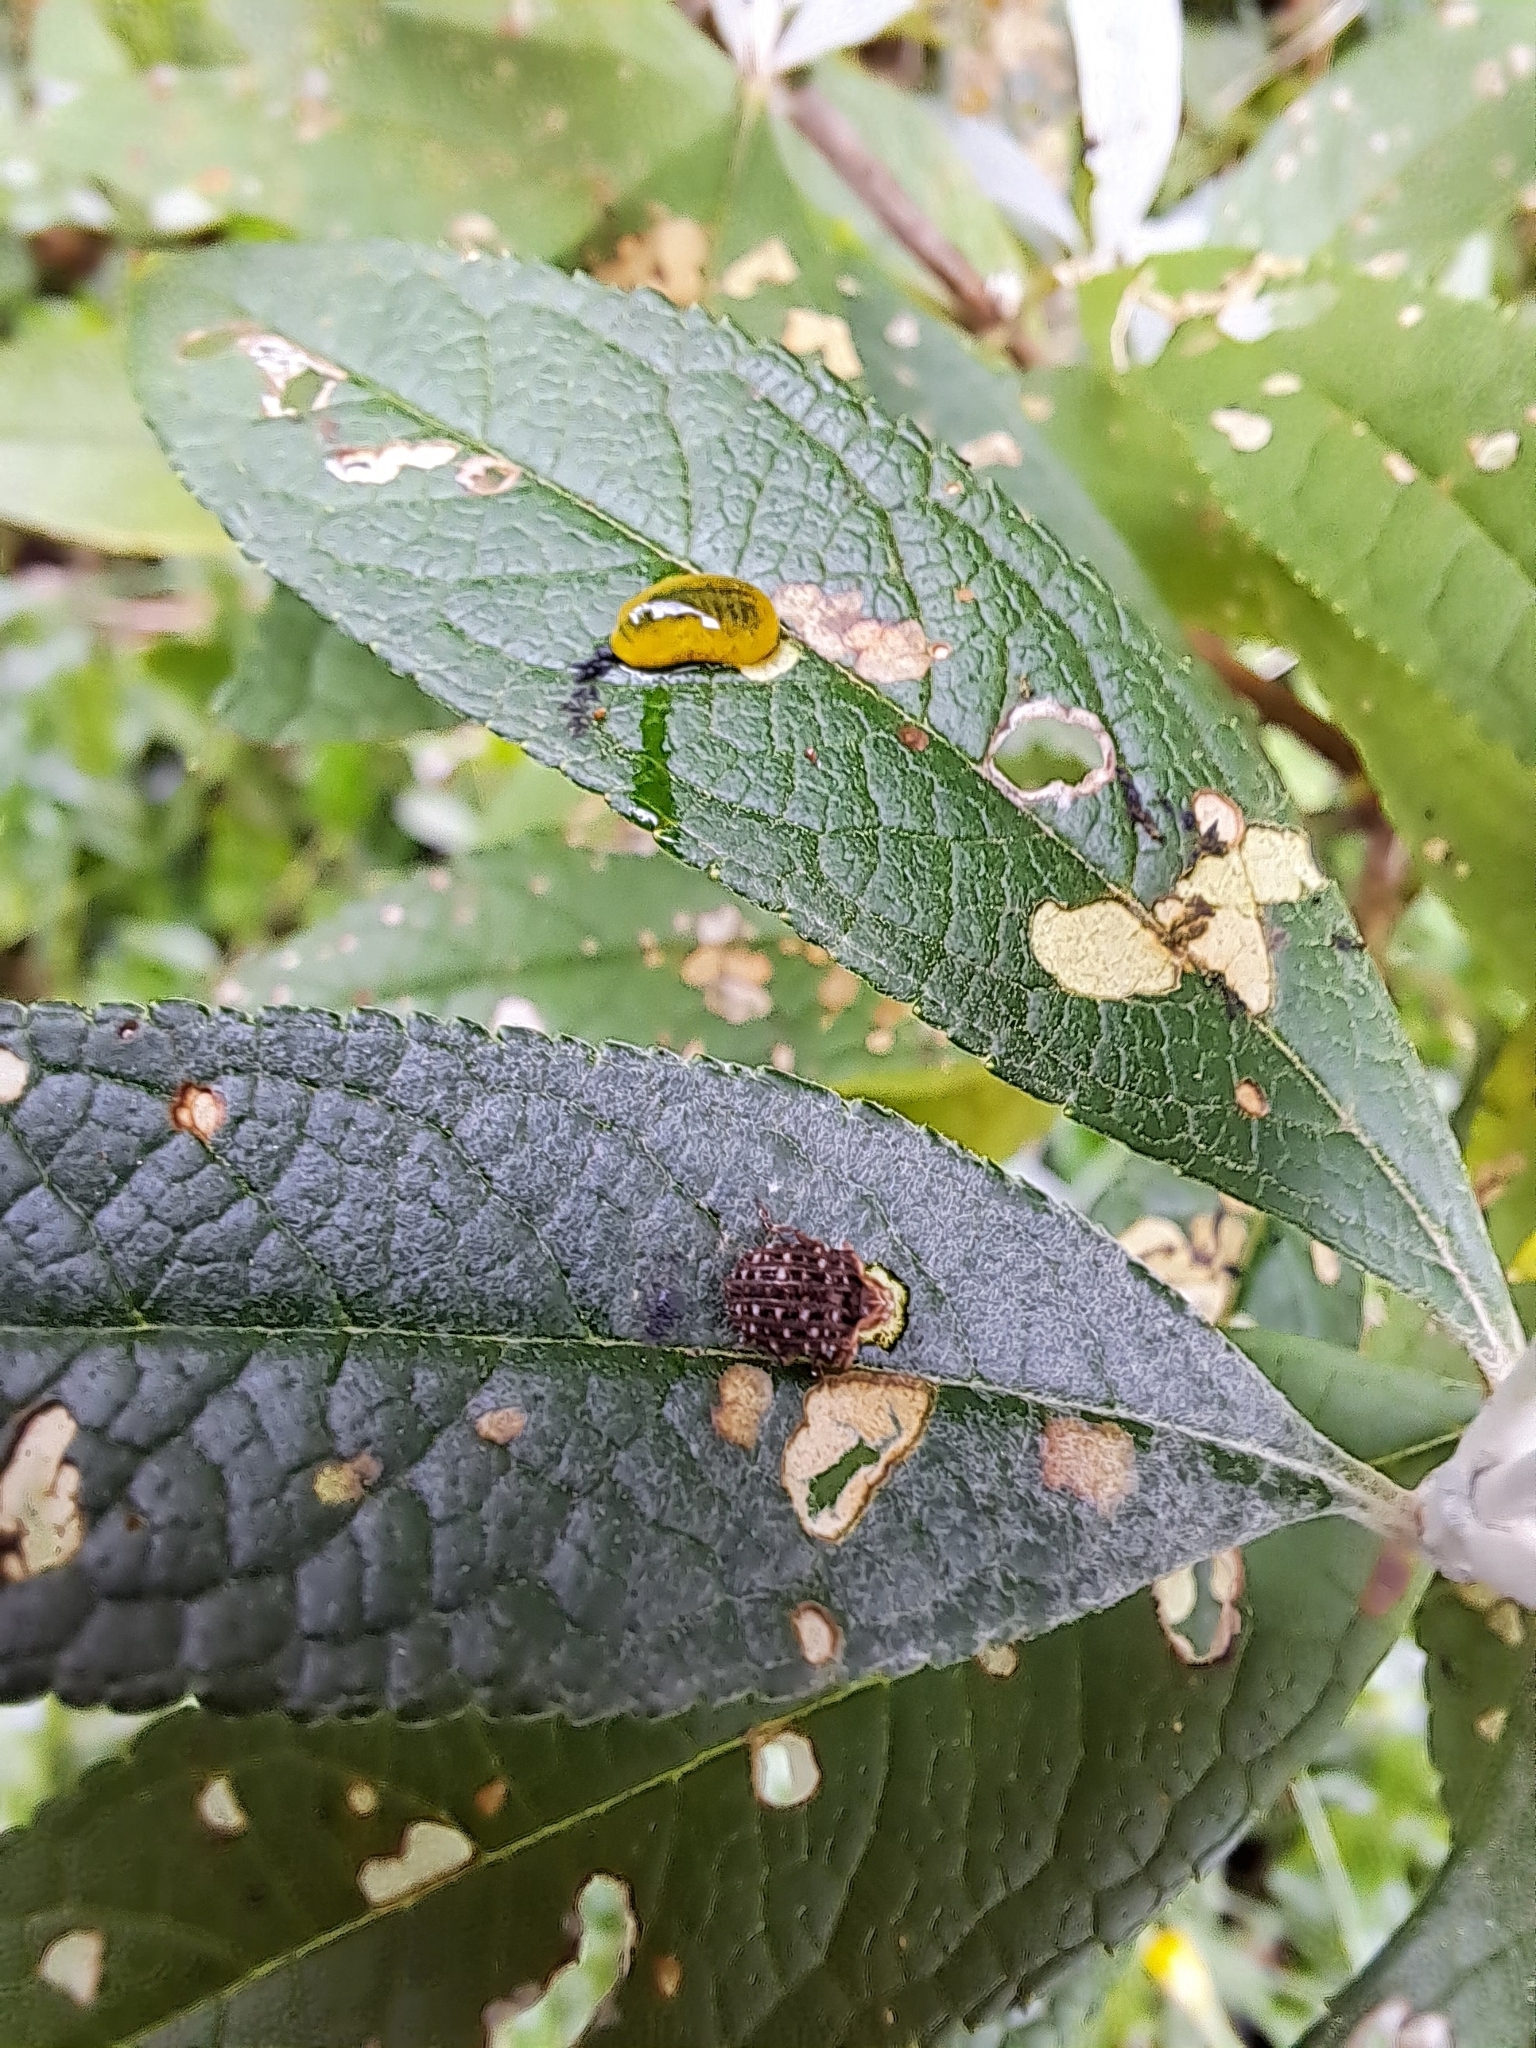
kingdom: Animalia
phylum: Arthropoda
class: Insecta
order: Coleoptera
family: Curculionidae
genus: Cleopus
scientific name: Cleopus japonicus
